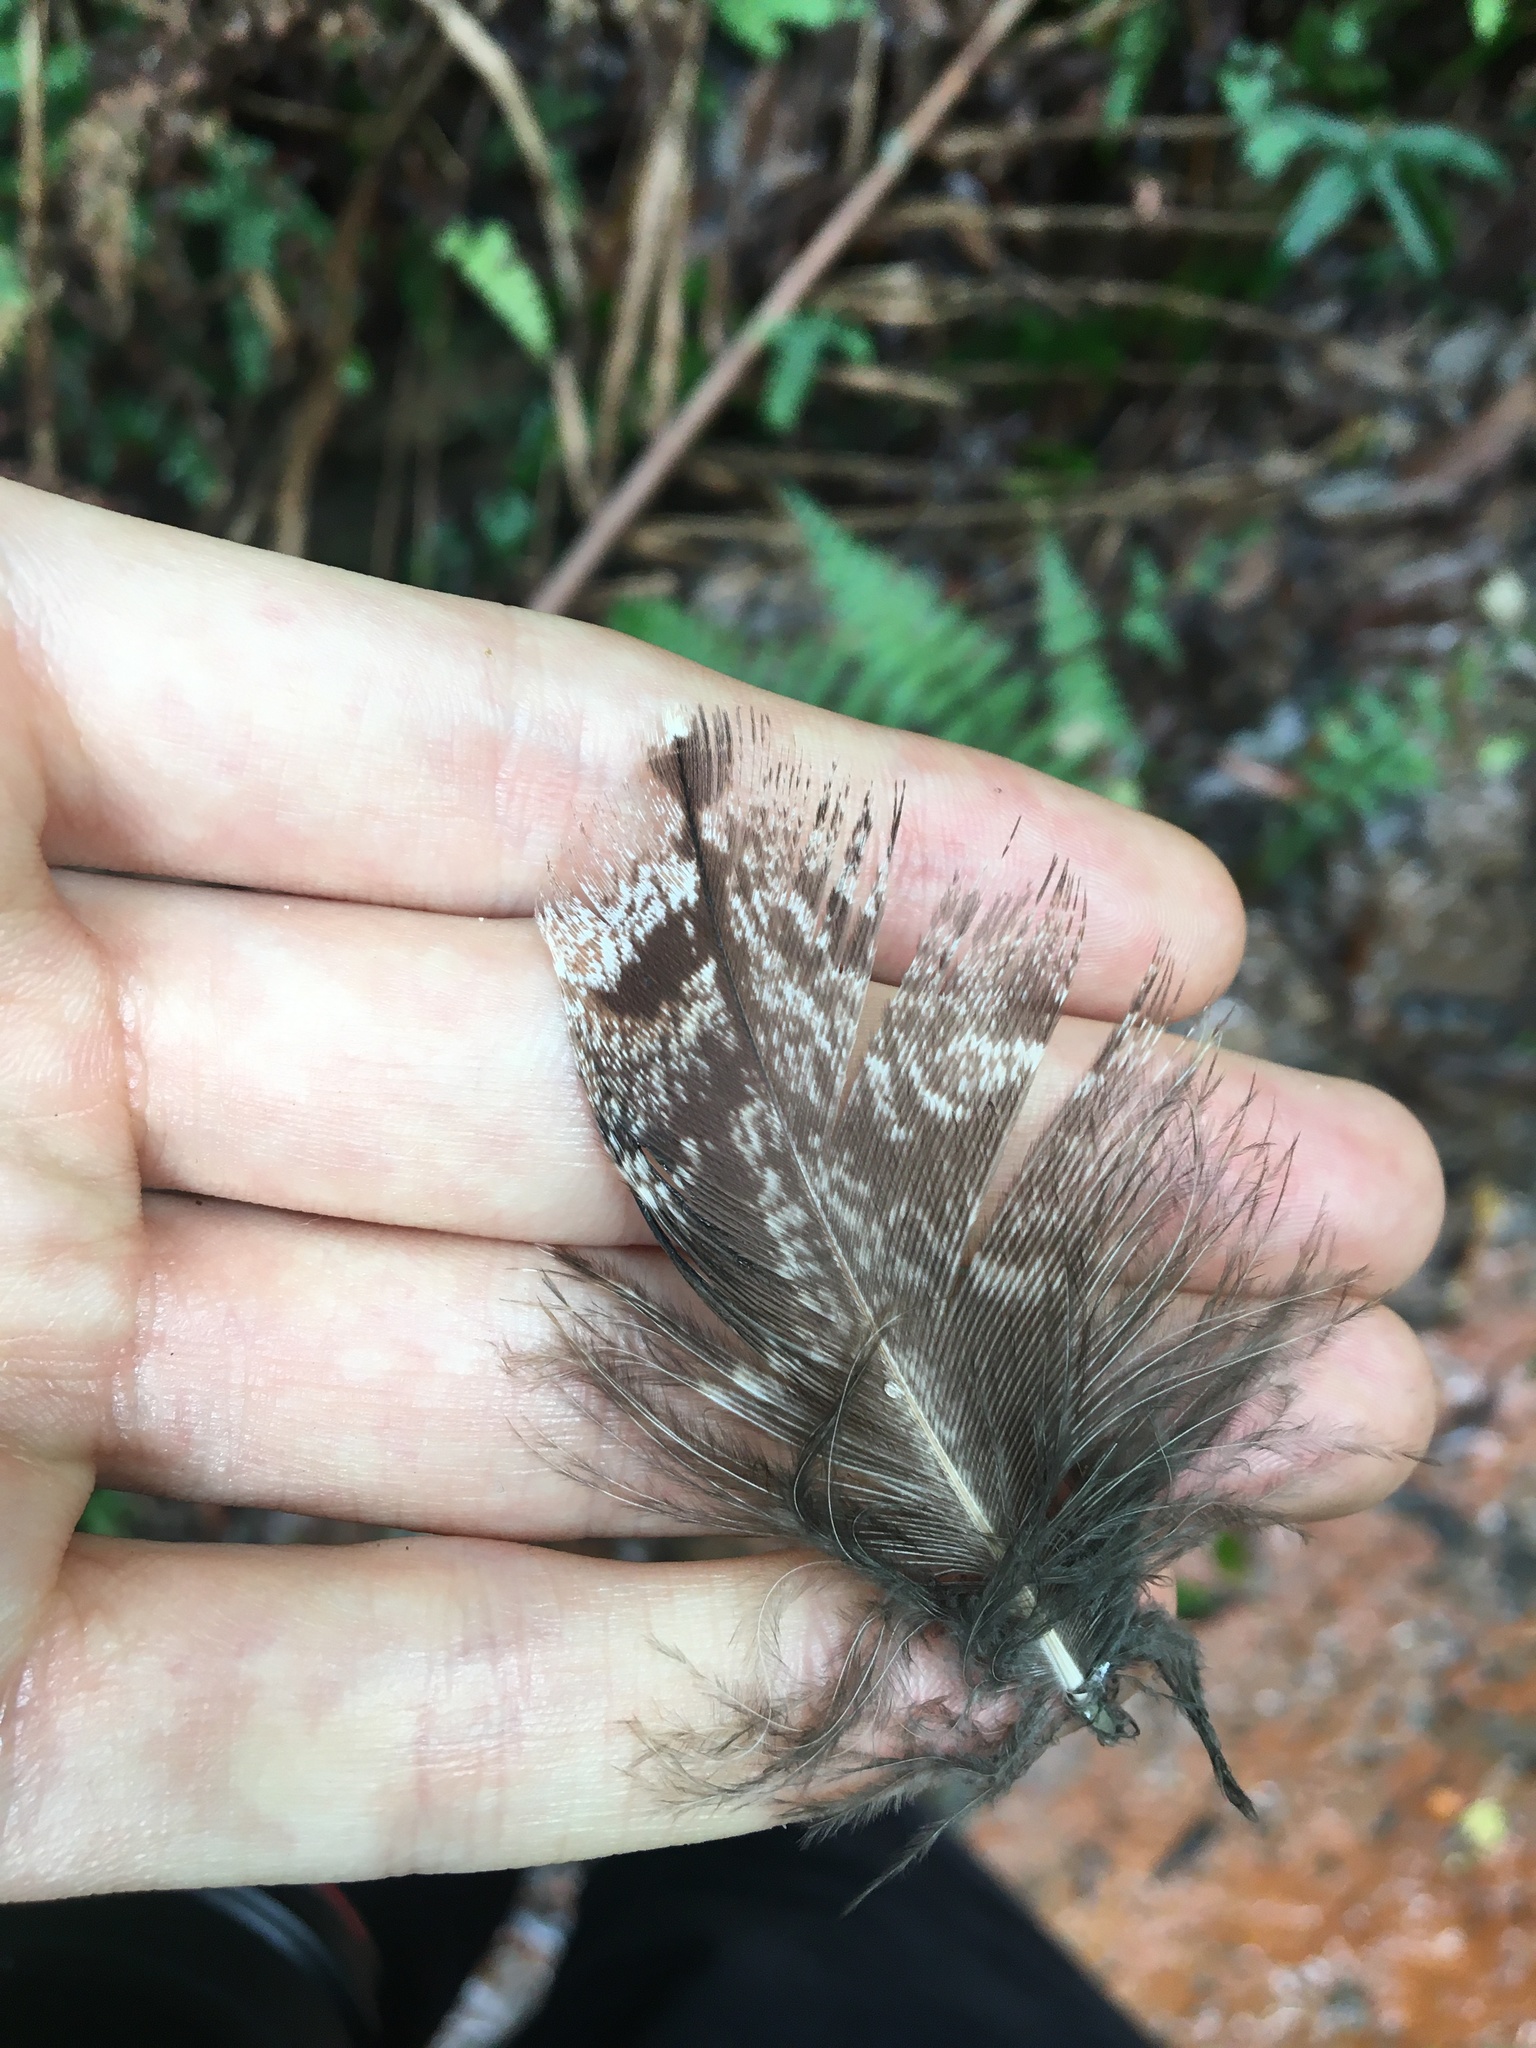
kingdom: Animalia
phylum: Chordata
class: Aves
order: Caprimulgiformes
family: Podargidae
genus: Podargus
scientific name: Podargus strigoides
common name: Tawny frogmouth
